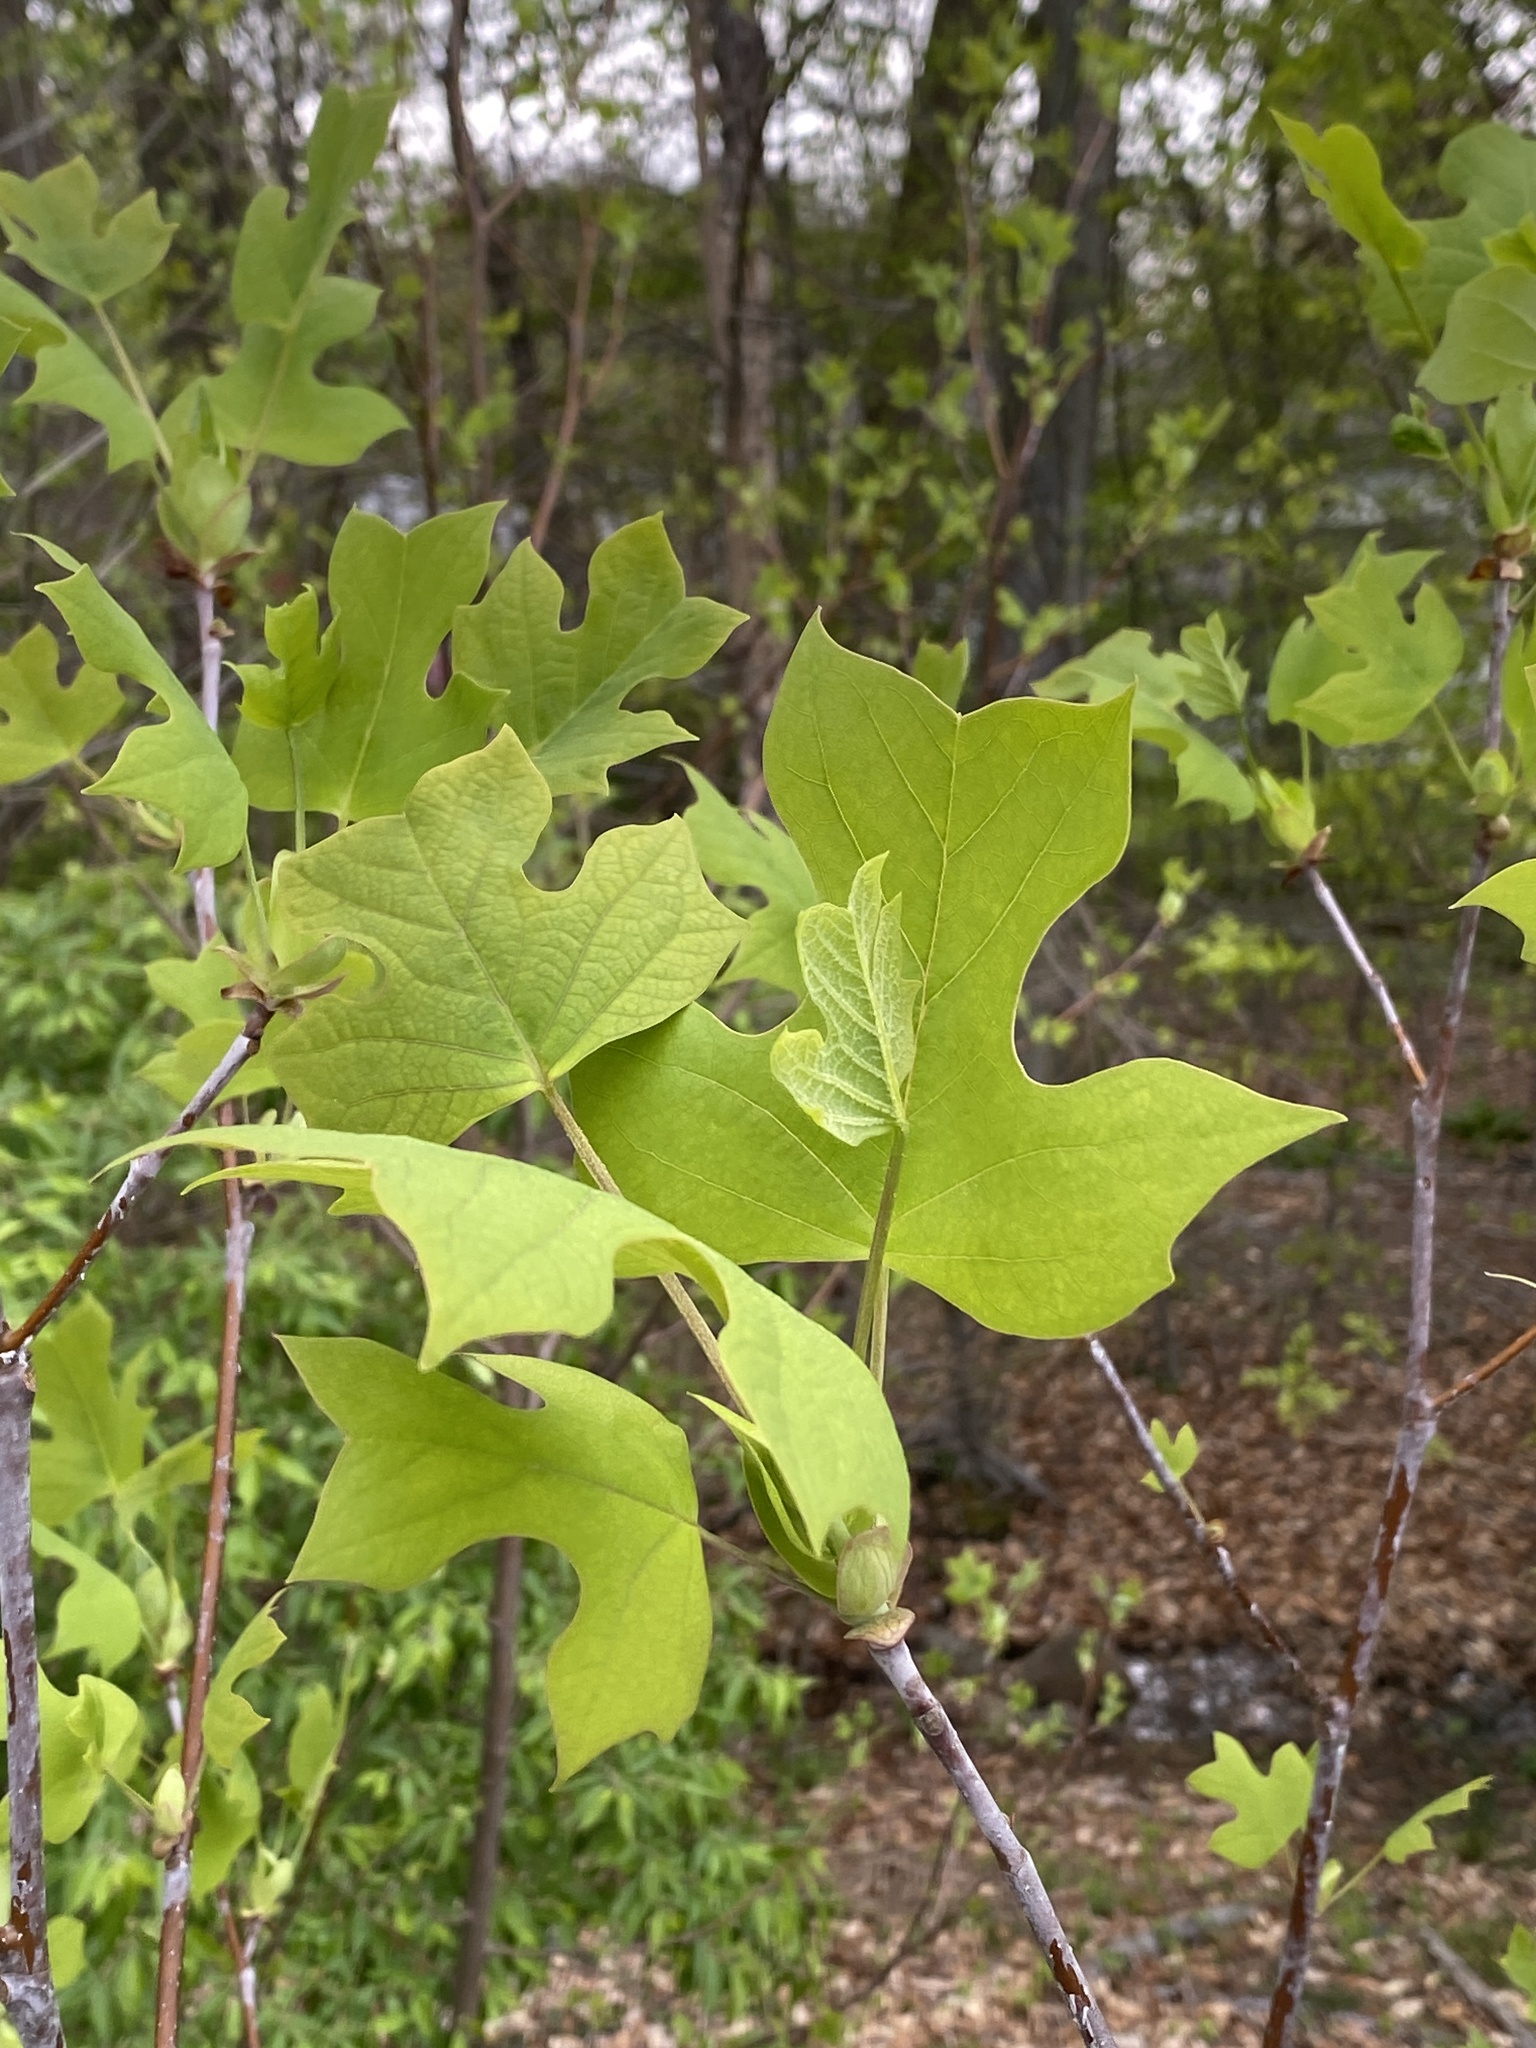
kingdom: Plantae
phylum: Tracheophyta
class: Magnoliopsida
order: Magnoliales
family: Magnoliaceae
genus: Liriodendron
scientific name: Liriodendron tulipifera
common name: Tulip tree
